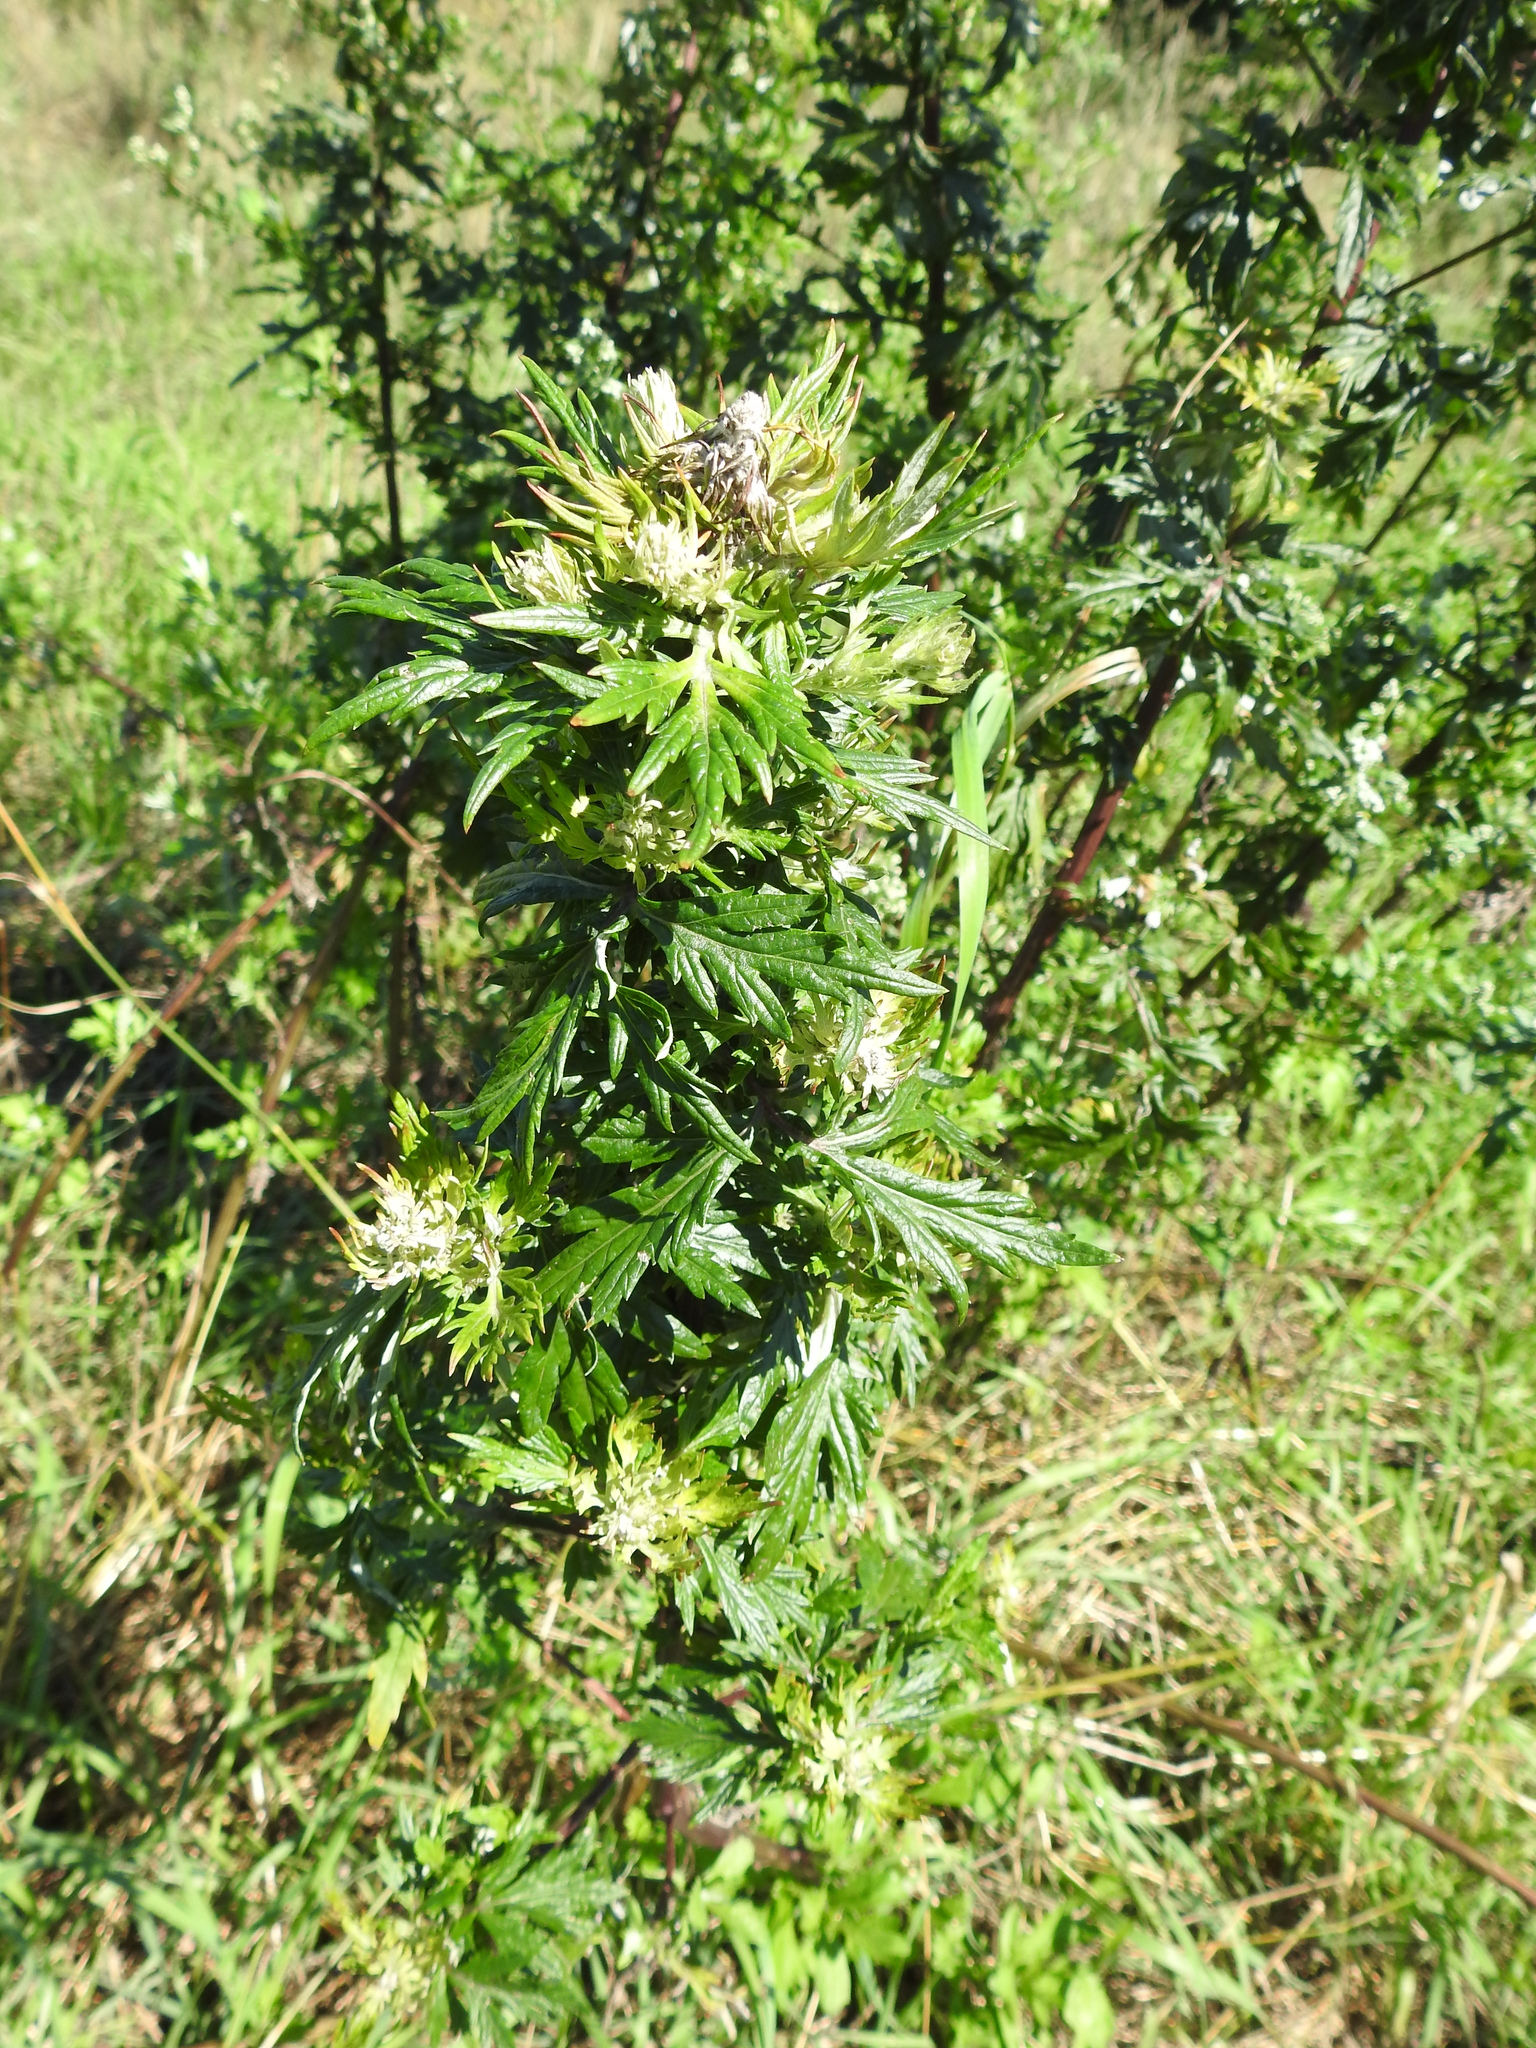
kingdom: Plantae
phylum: Tracheophyta
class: Magnoliopsida
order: Asterales
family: Asteraceae
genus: Artemisia
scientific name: Artemisia vulgaris
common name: Mugwort
